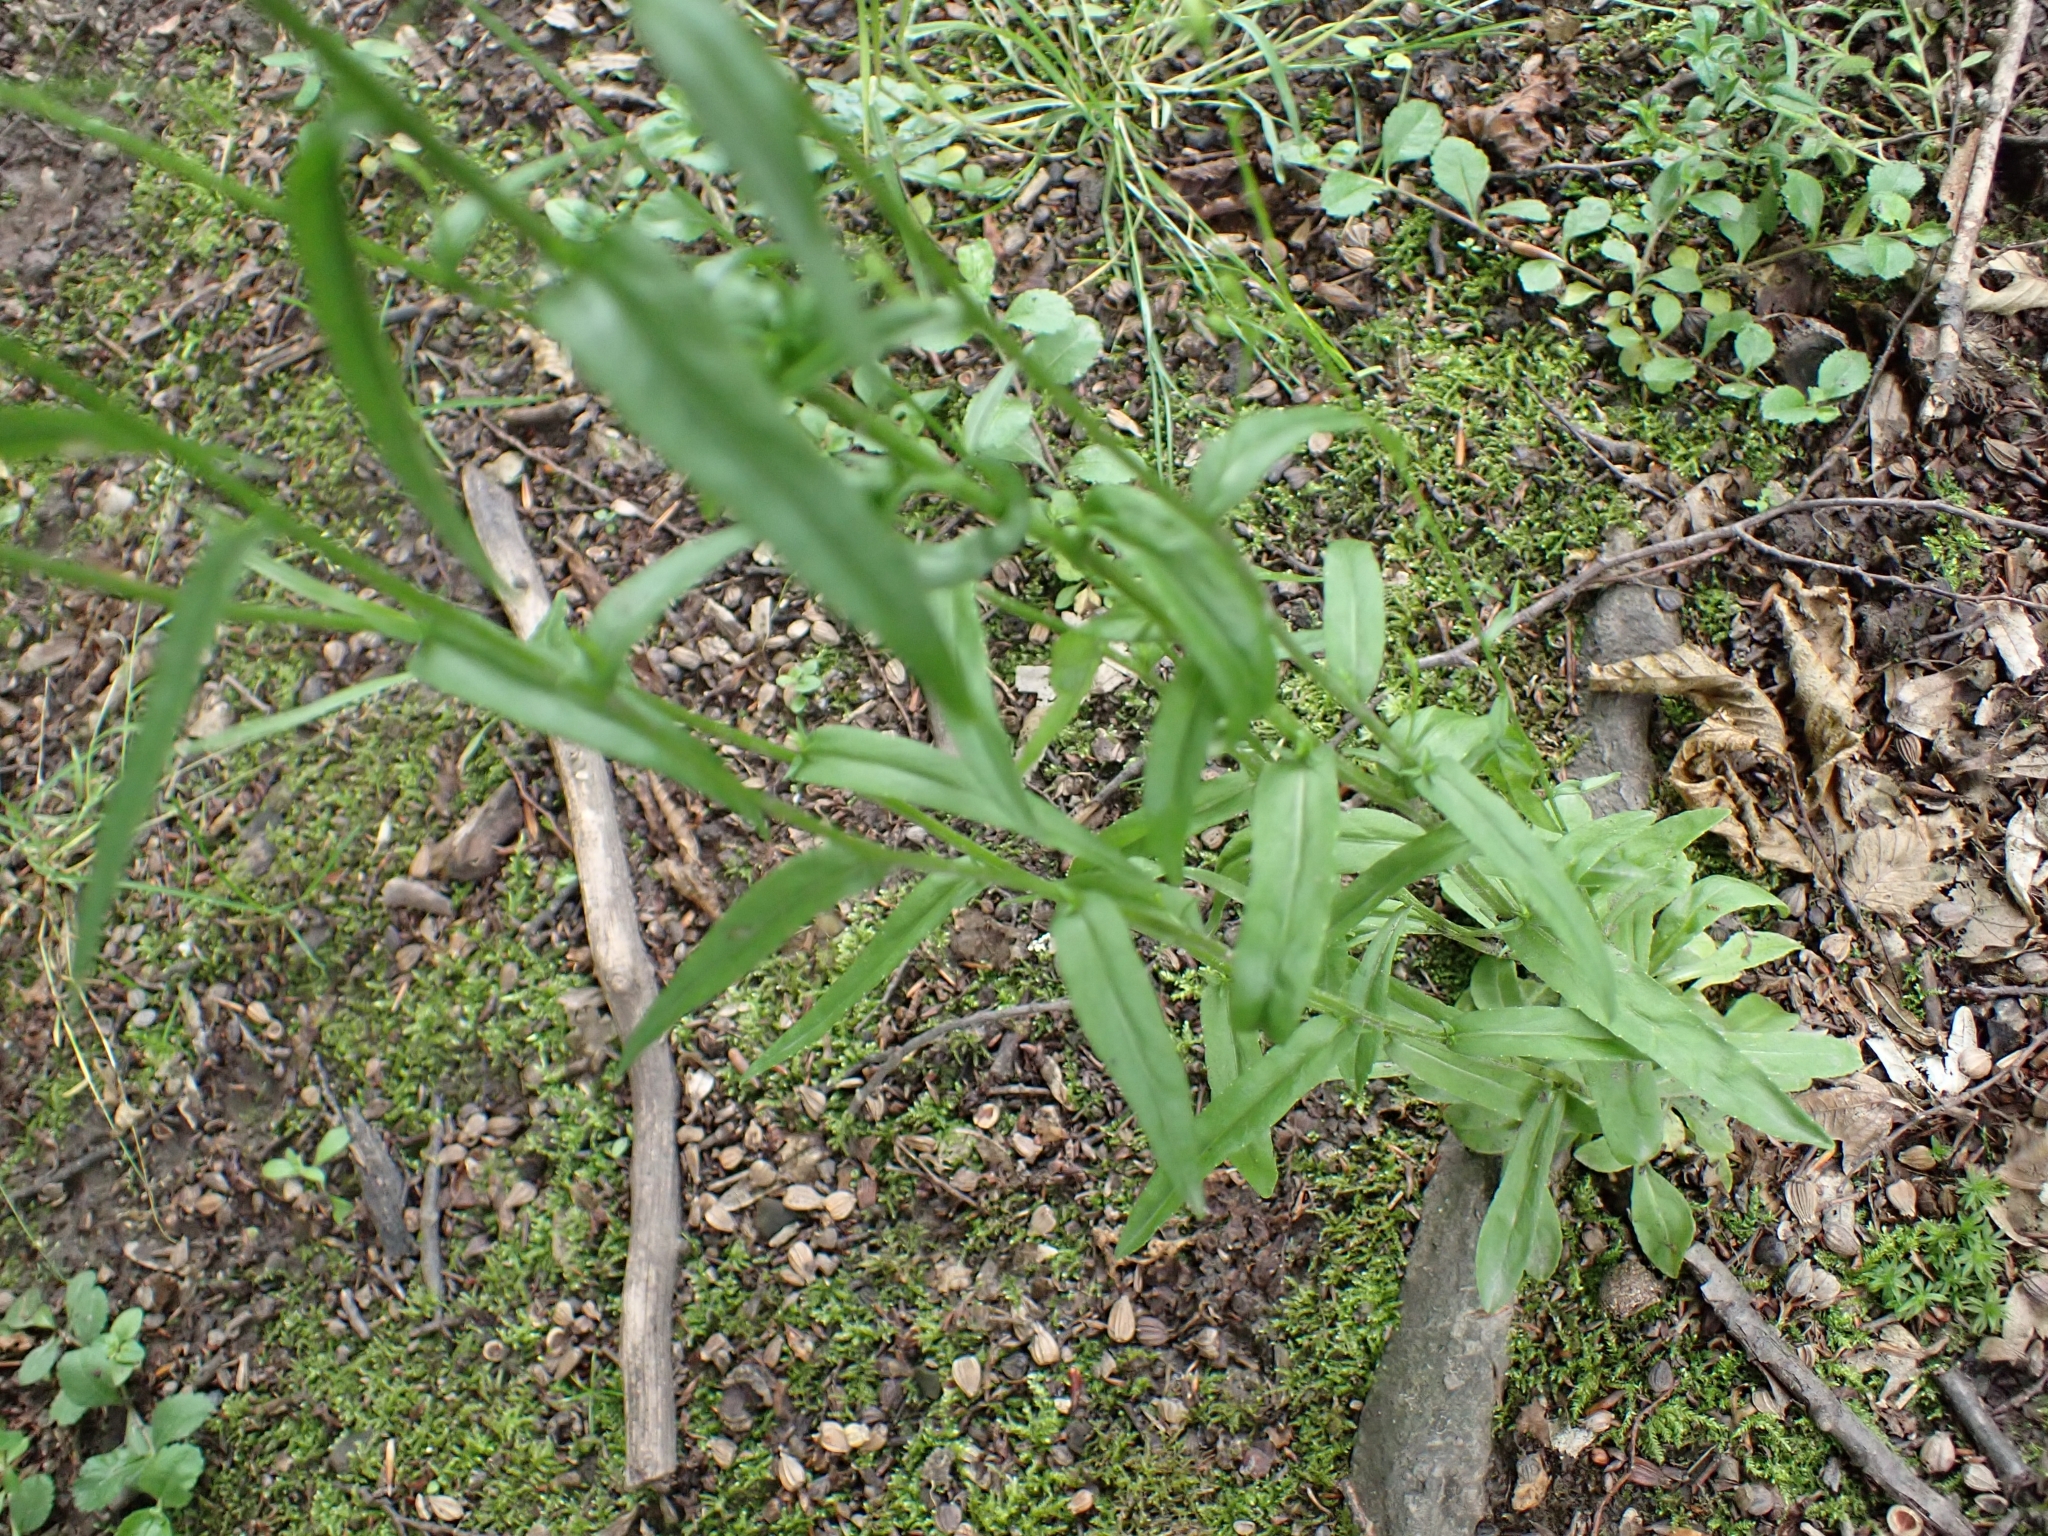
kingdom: Plantae
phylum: Tracheophyta
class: Magnoliopsida
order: Asterales
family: Campanulaceae
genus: Campanula
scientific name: Campanula patula
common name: Spreading bellflower
